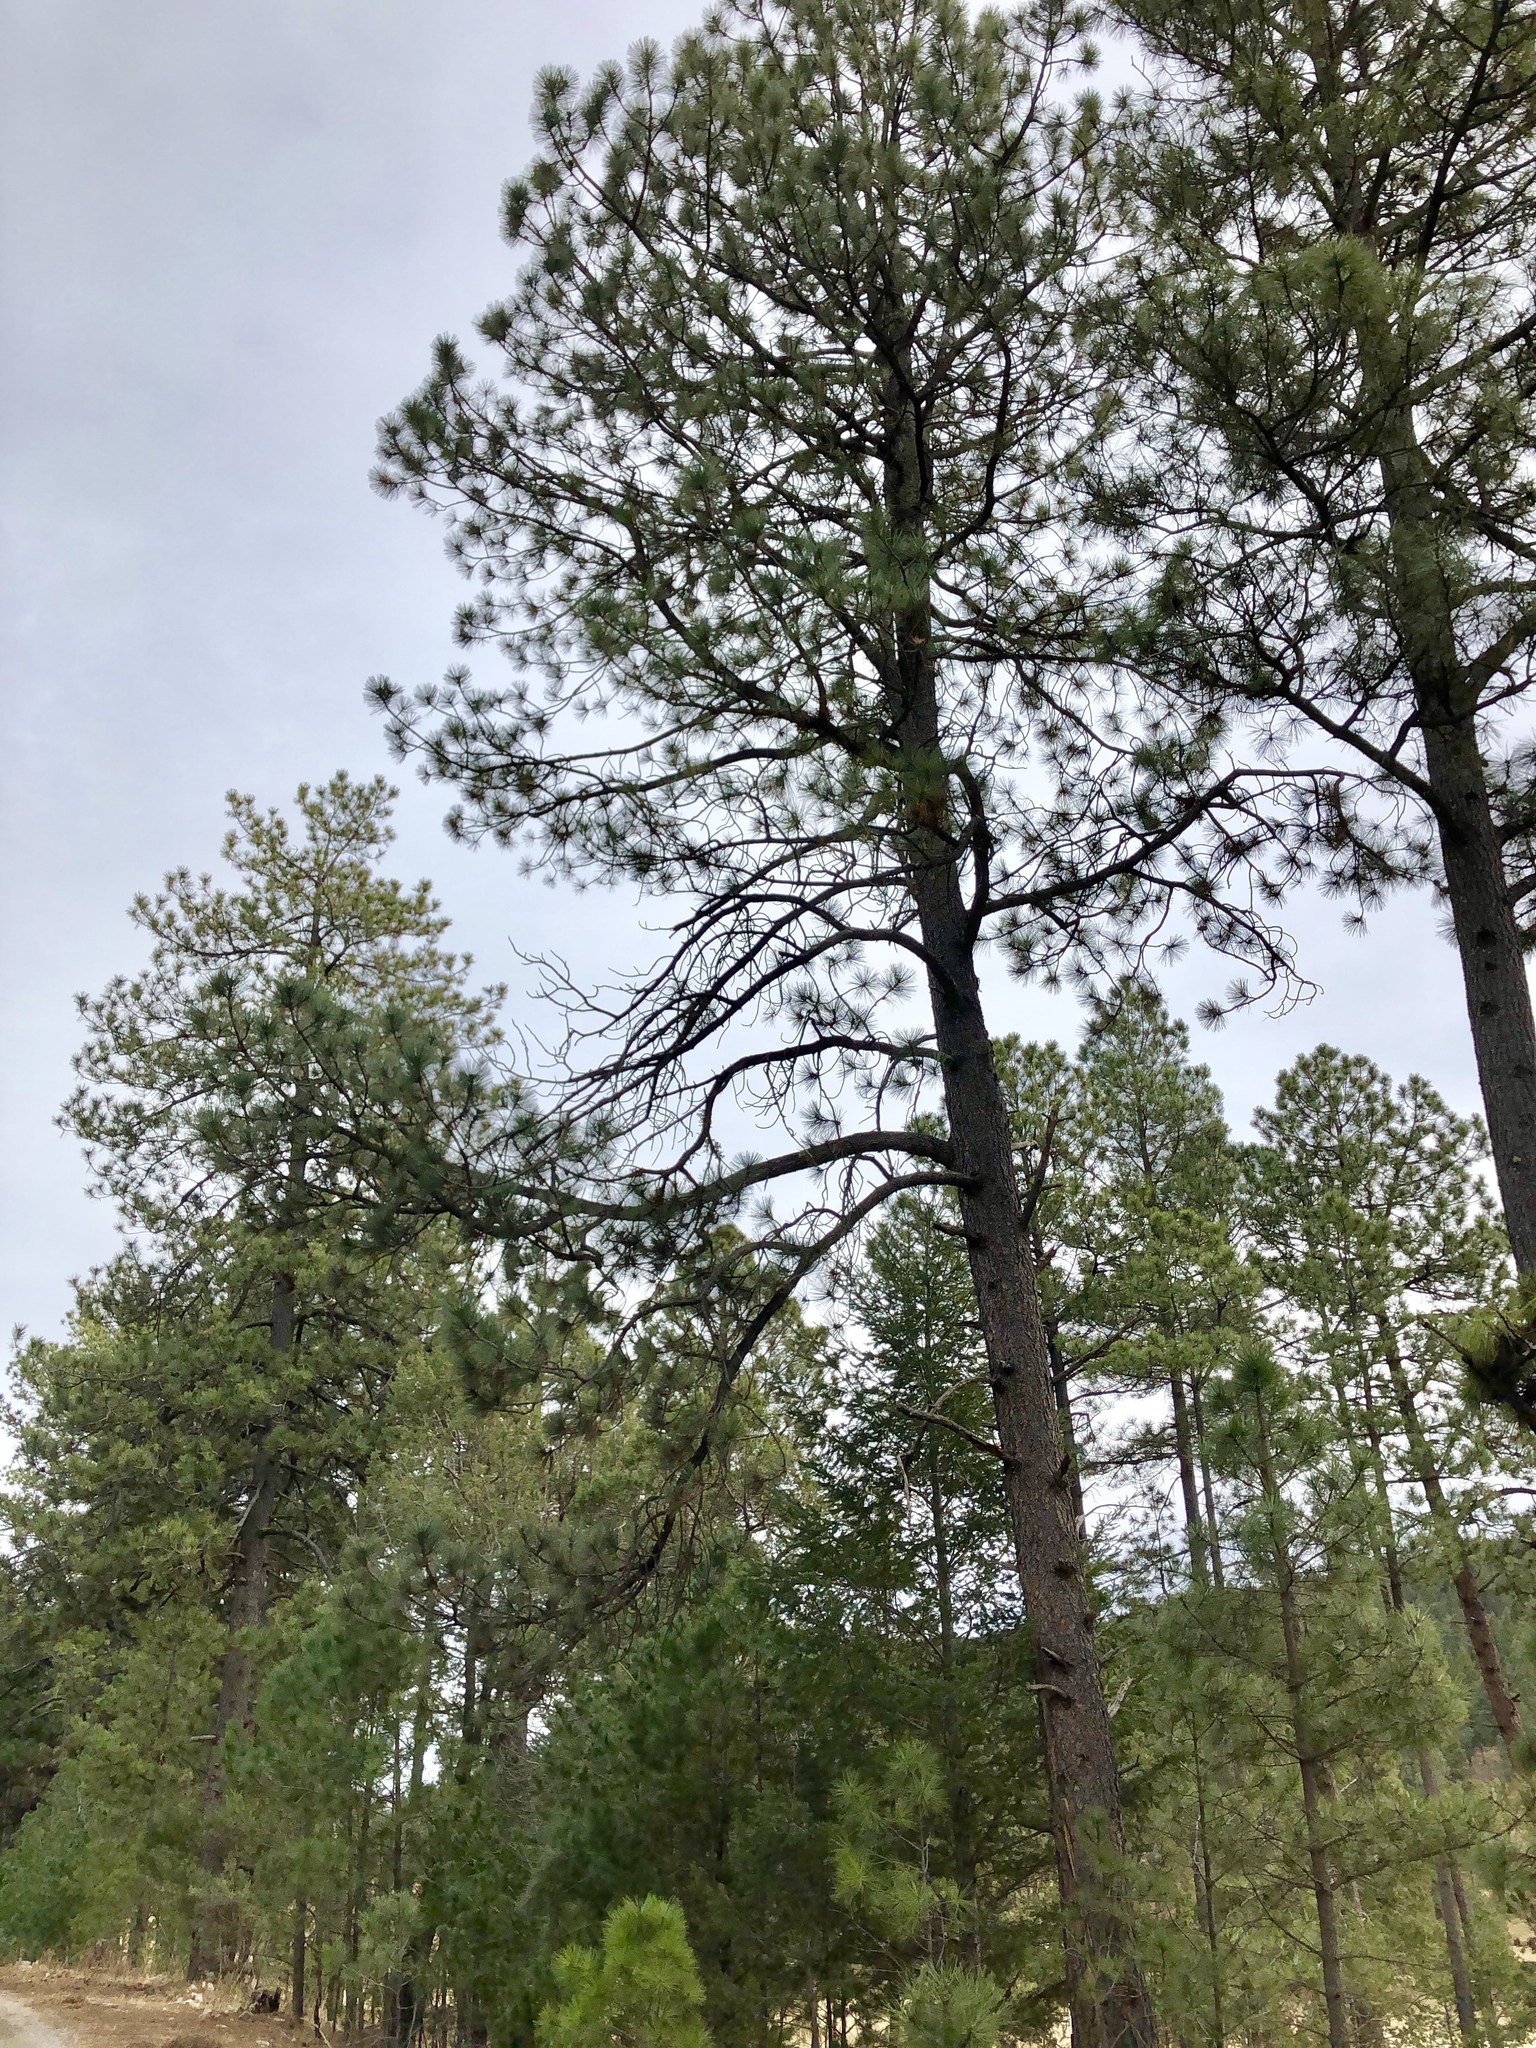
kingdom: Plantae
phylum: Tracheophyta
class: Pinopsida
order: Pinales
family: Pinaceae
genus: Pinus
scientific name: Pinus ponderosa
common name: Western yellow-pine
